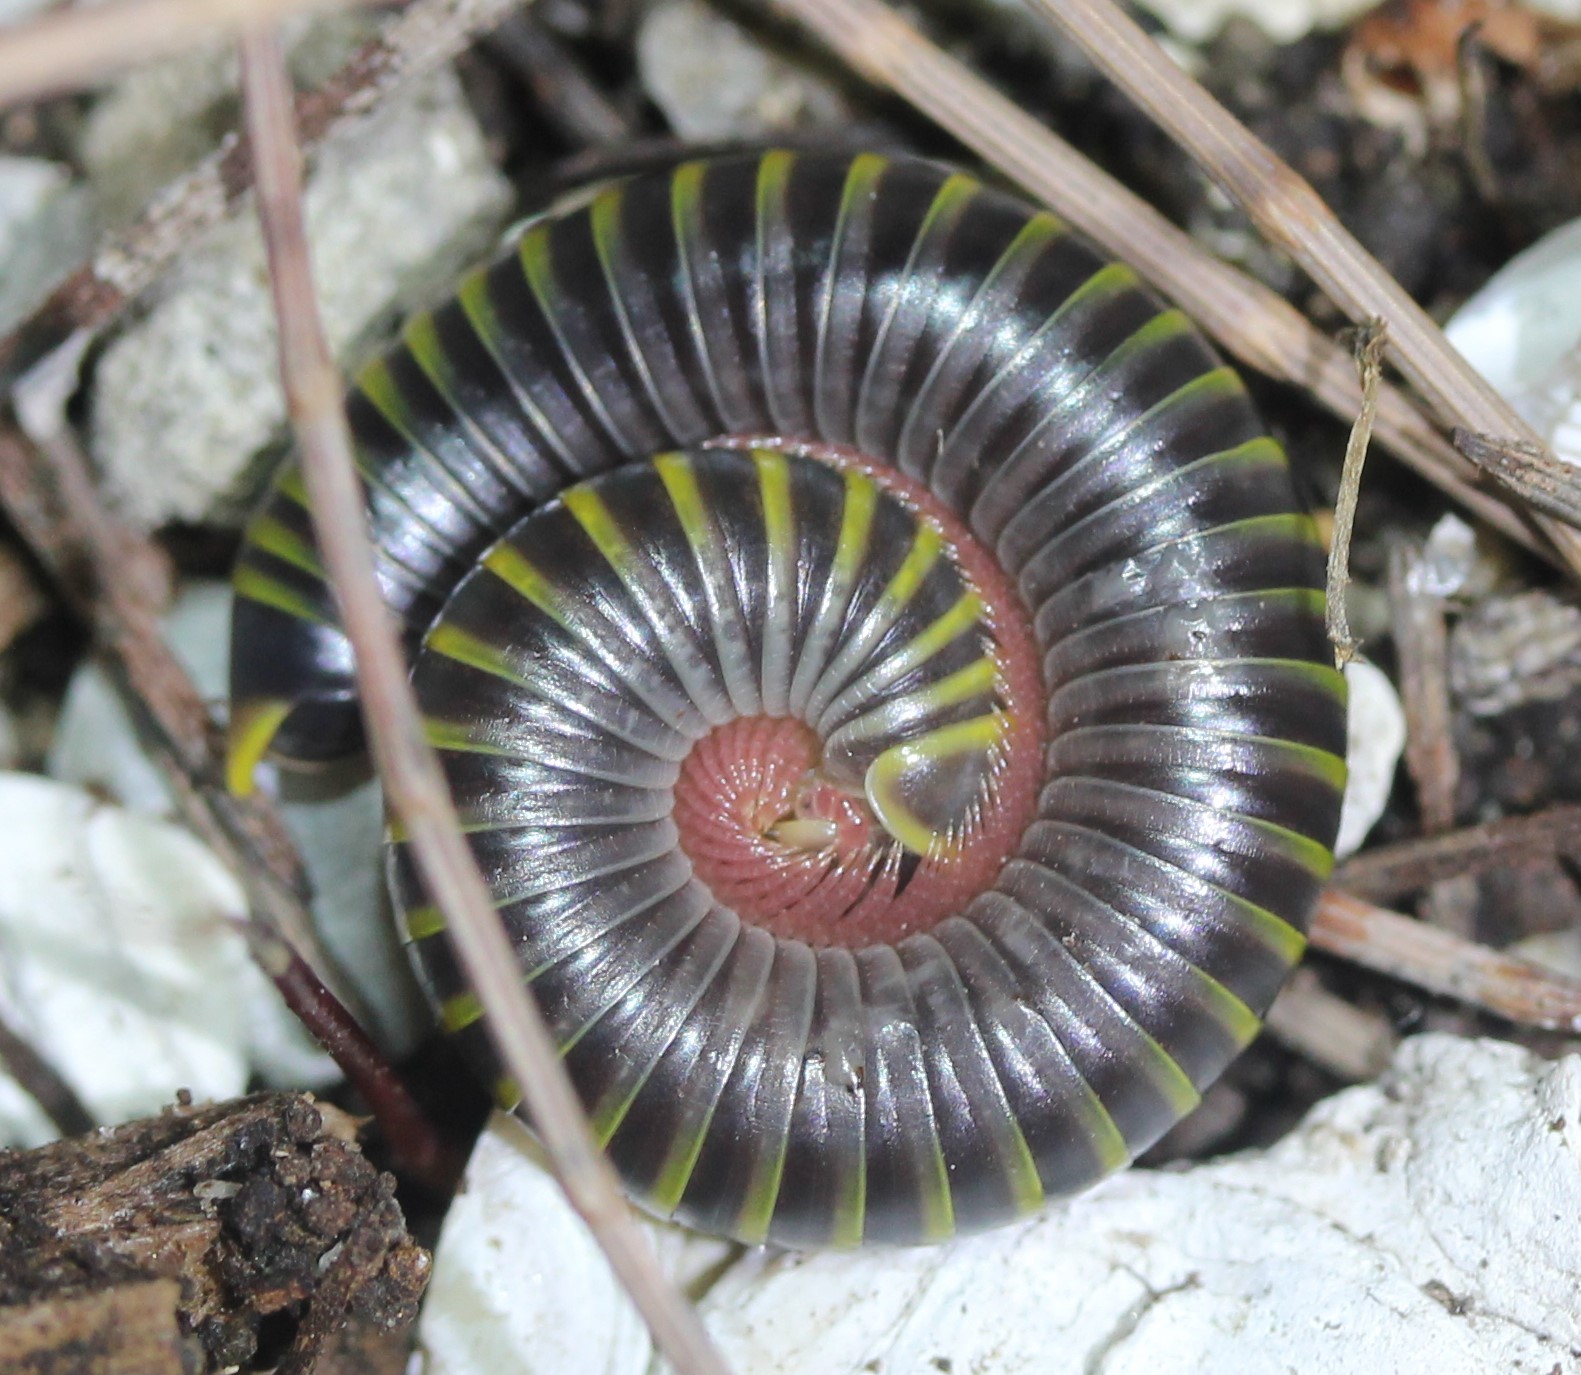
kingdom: Animalia
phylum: Arthropoda
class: Diplopoda
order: Spirobolida
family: Rhinocricidae
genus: Anadenobolus
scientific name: Anadenobolus monilicornis
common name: Caribbean millipede
